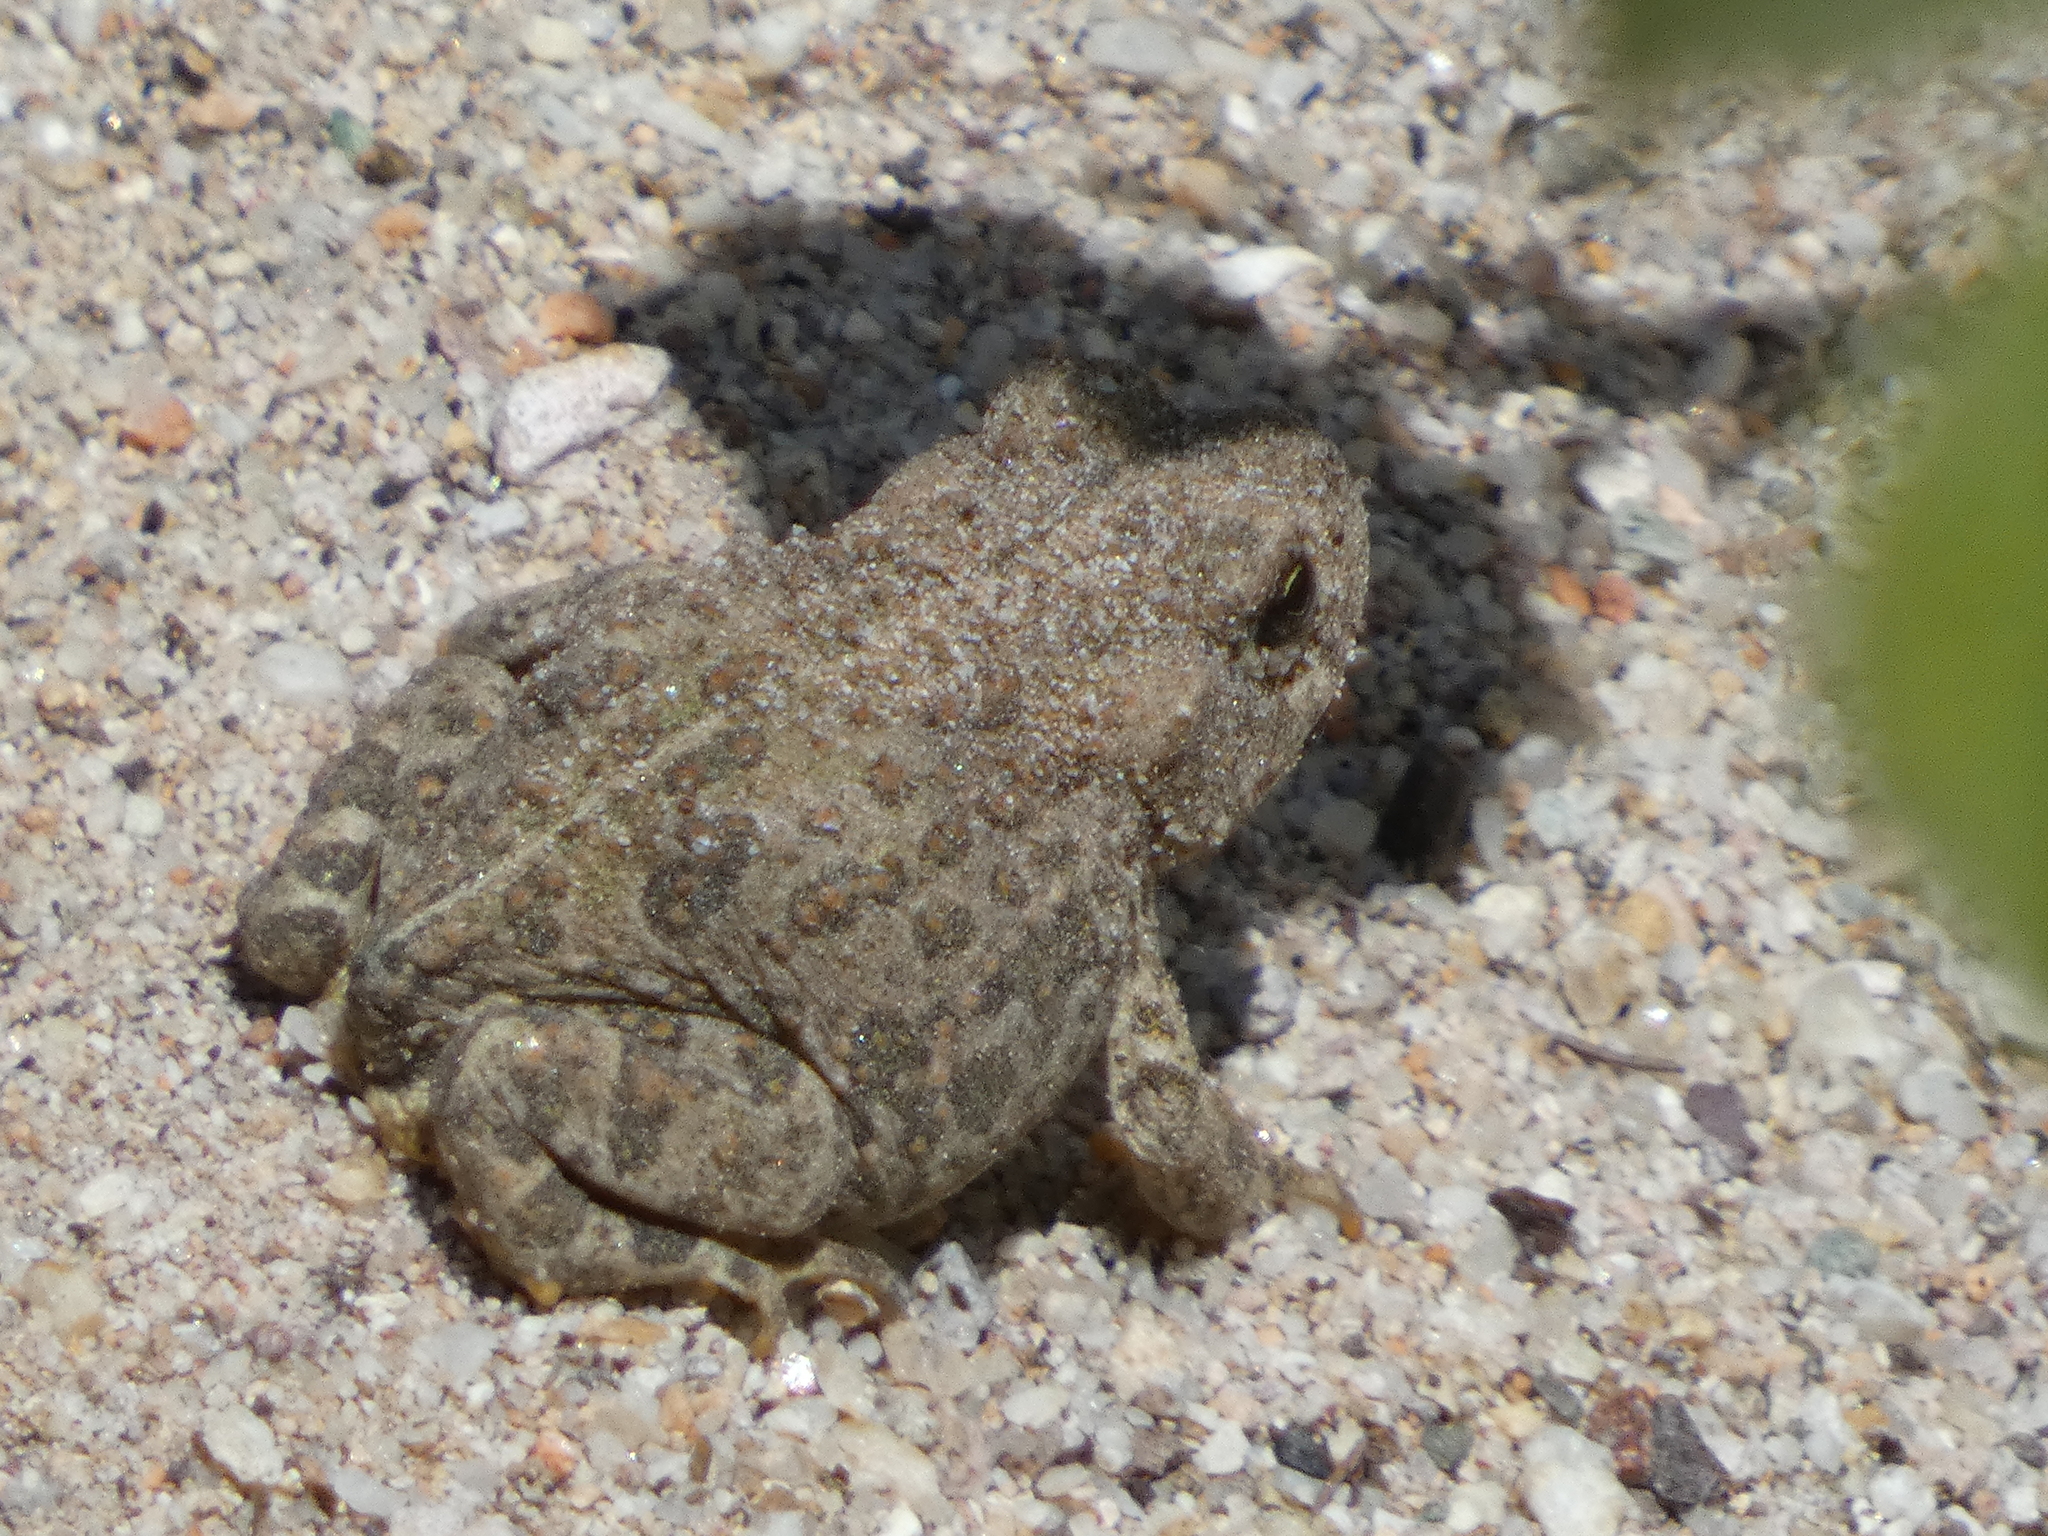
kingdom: Animalia
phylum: Chordata
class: Amphibia
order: Anura
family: Bufonidae
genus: Anaxyrus
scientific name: Anaxyrus boreas
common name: Western toad
